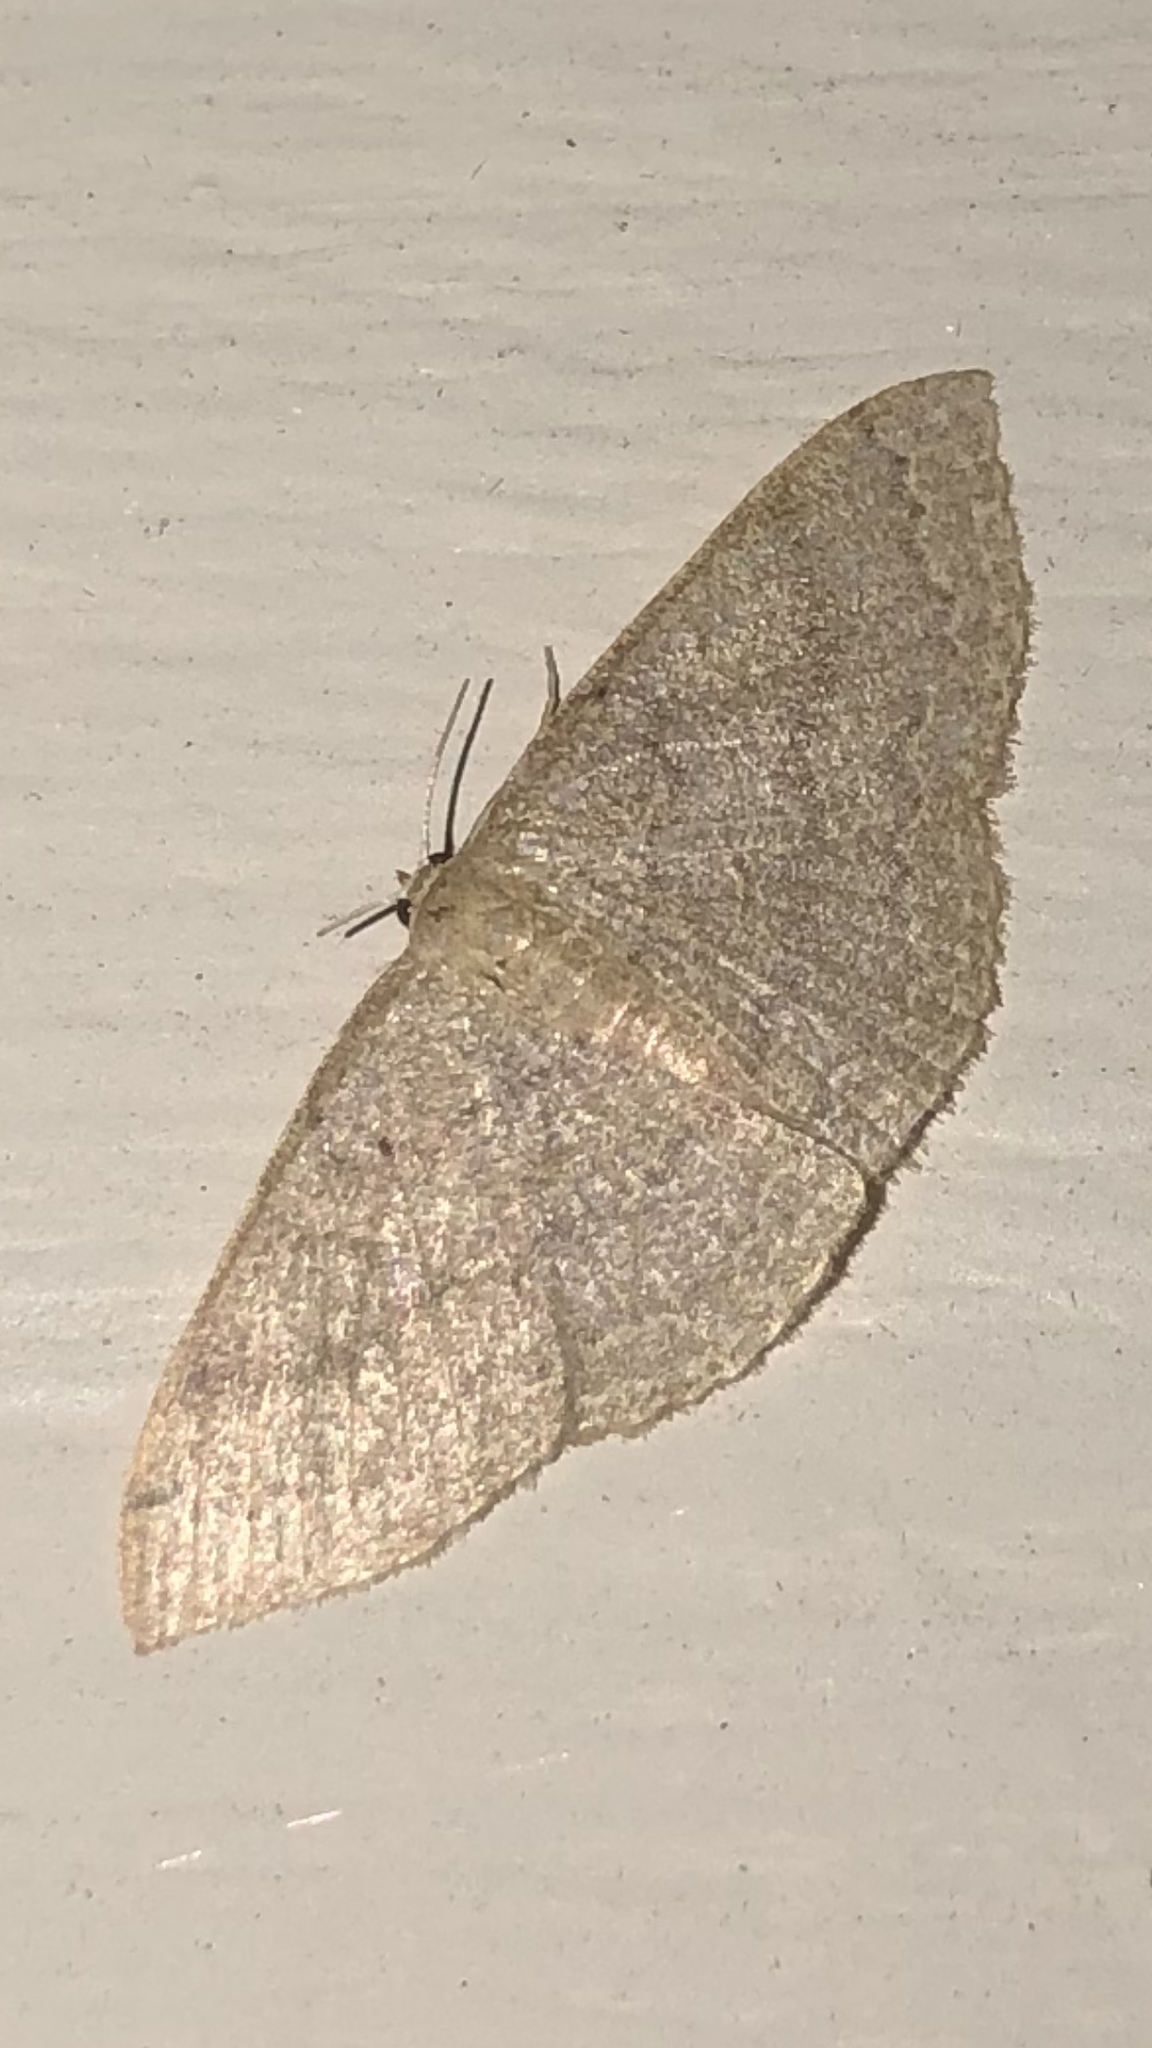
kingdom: Animalia
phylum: Arthropoda
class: Insecta
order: Lepidoptera
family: Geometridae
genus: Pleuroprucha
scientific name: Pleuroprucha insulsaria
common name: Common tan wave
